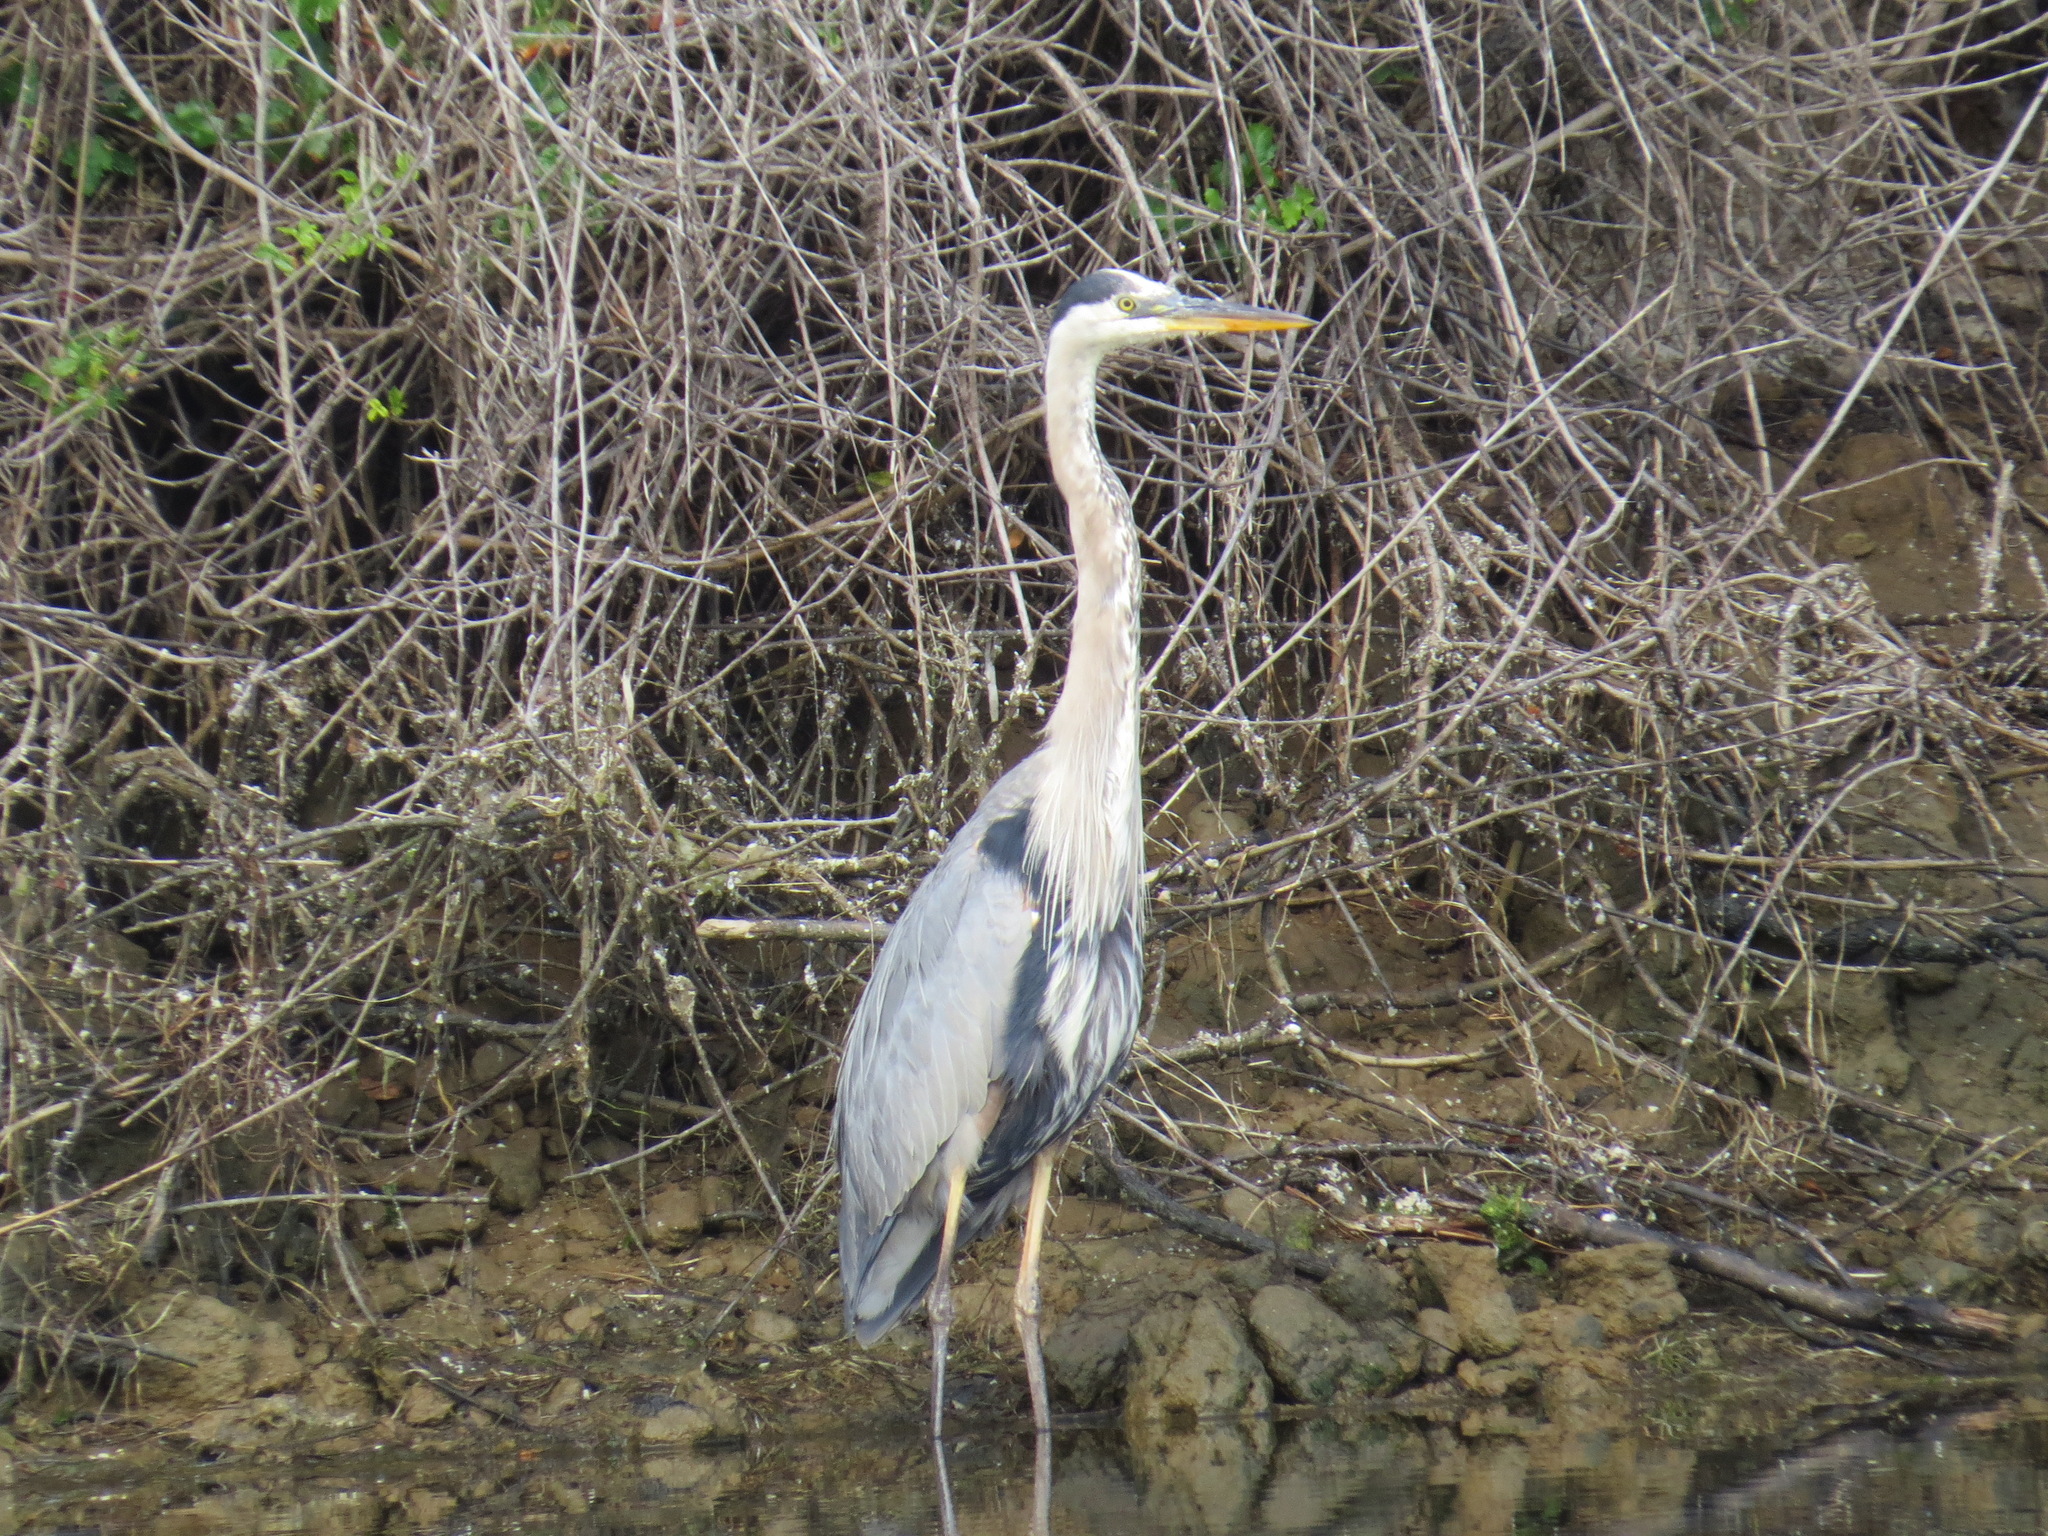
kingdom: Animalia
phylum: Chordata
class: Aves
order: Pelecaniformes
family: Ardeidae
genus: Ardea
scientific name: Ardea herodias
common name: Great blue heron
